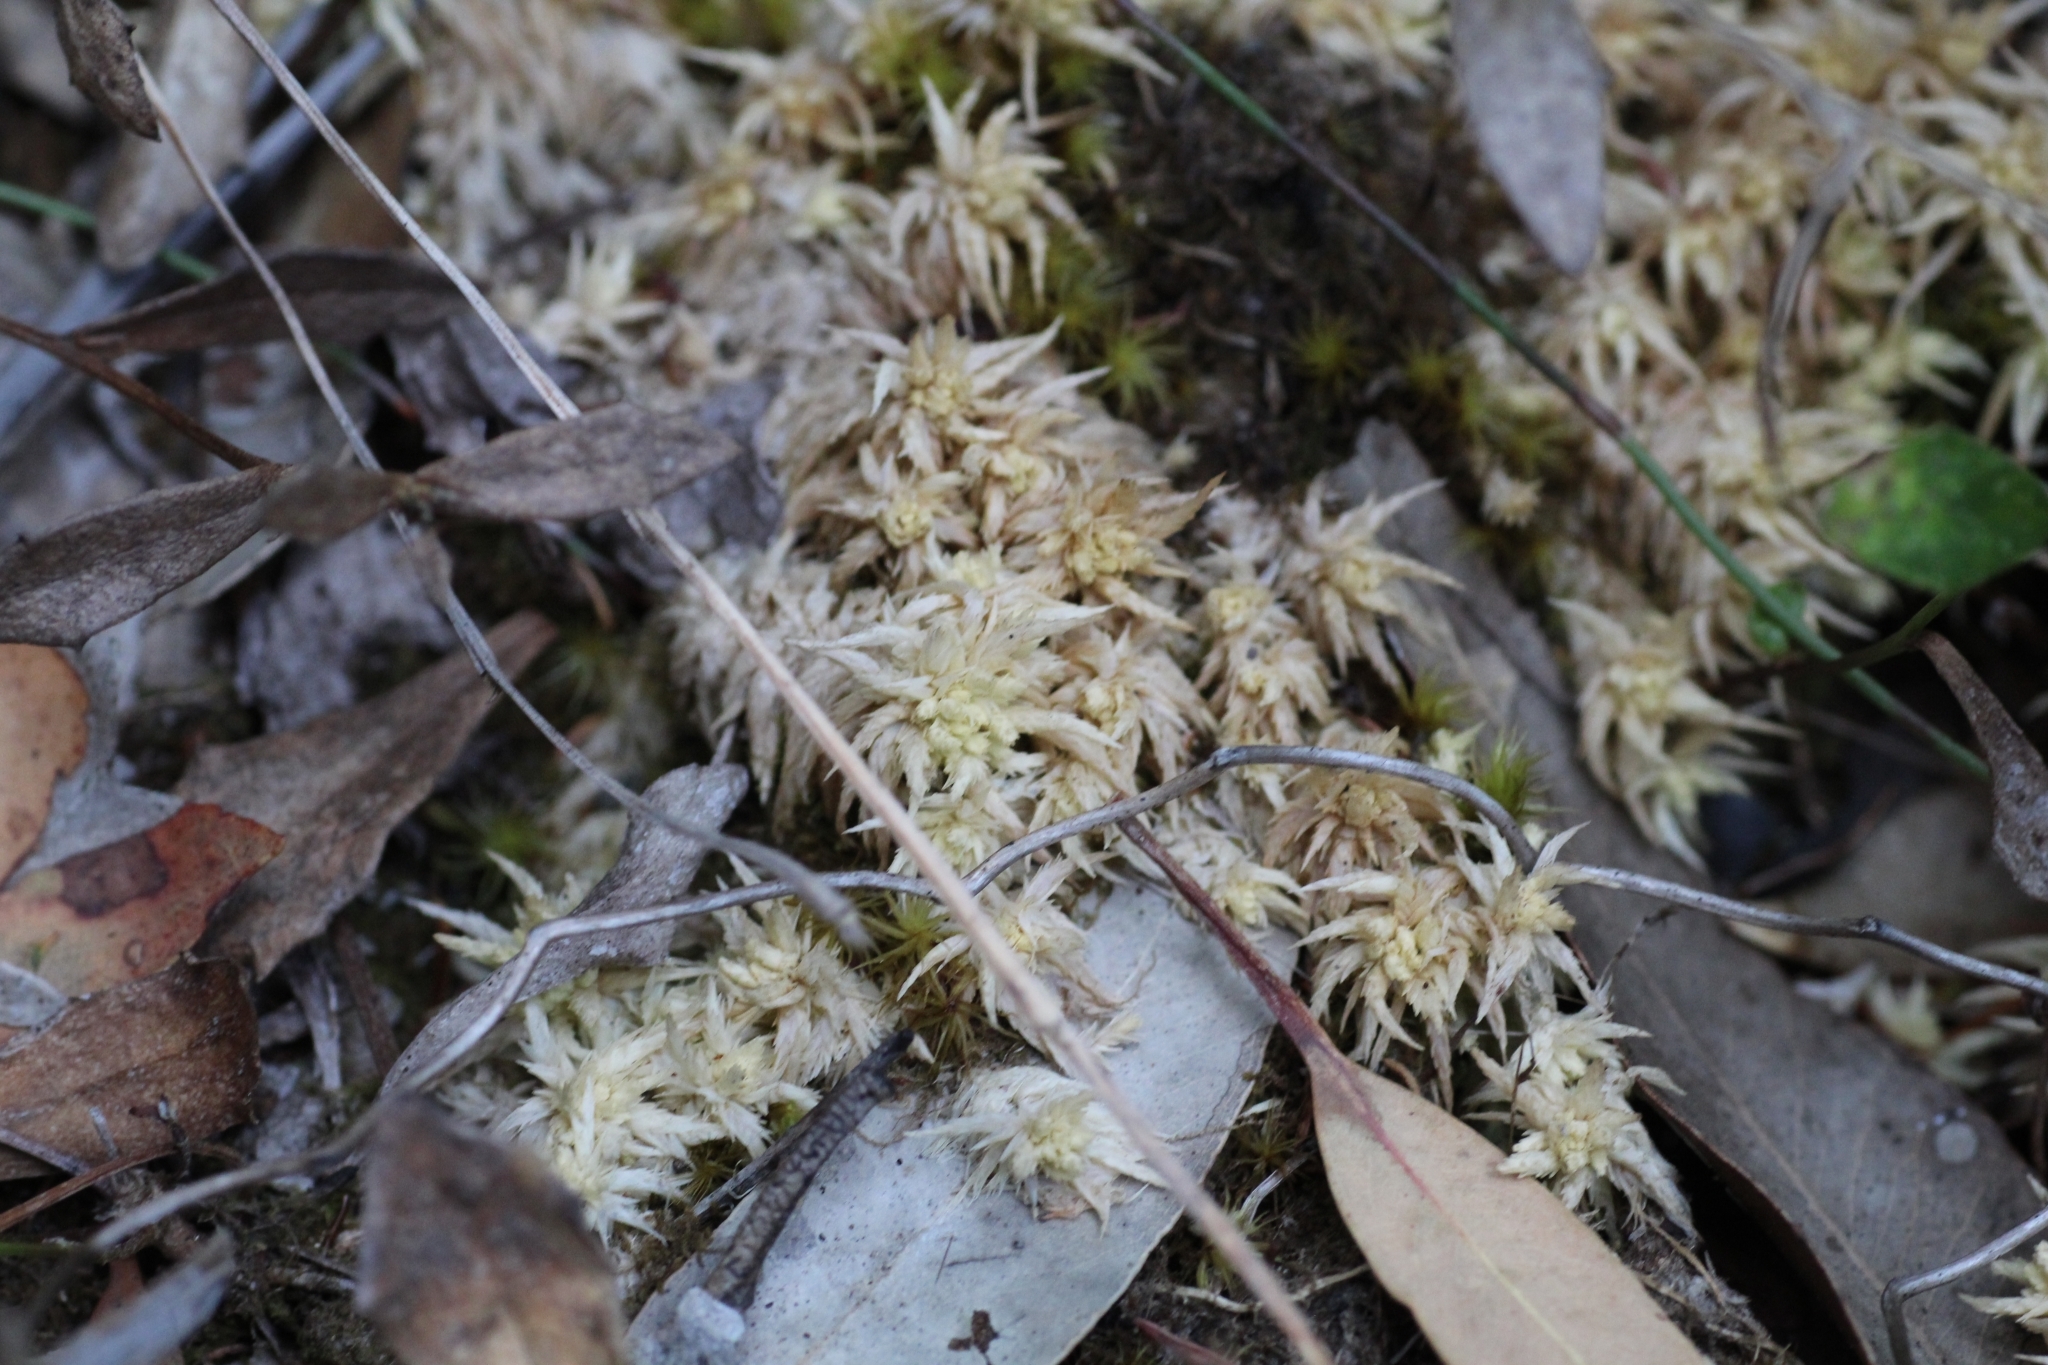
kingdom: Plantae
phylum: Bryophyta
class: Sphagnopsida
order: Sphagnales
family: Sphagnaceae
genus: Sphagnum
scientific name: Sphagnum novozelandicum
